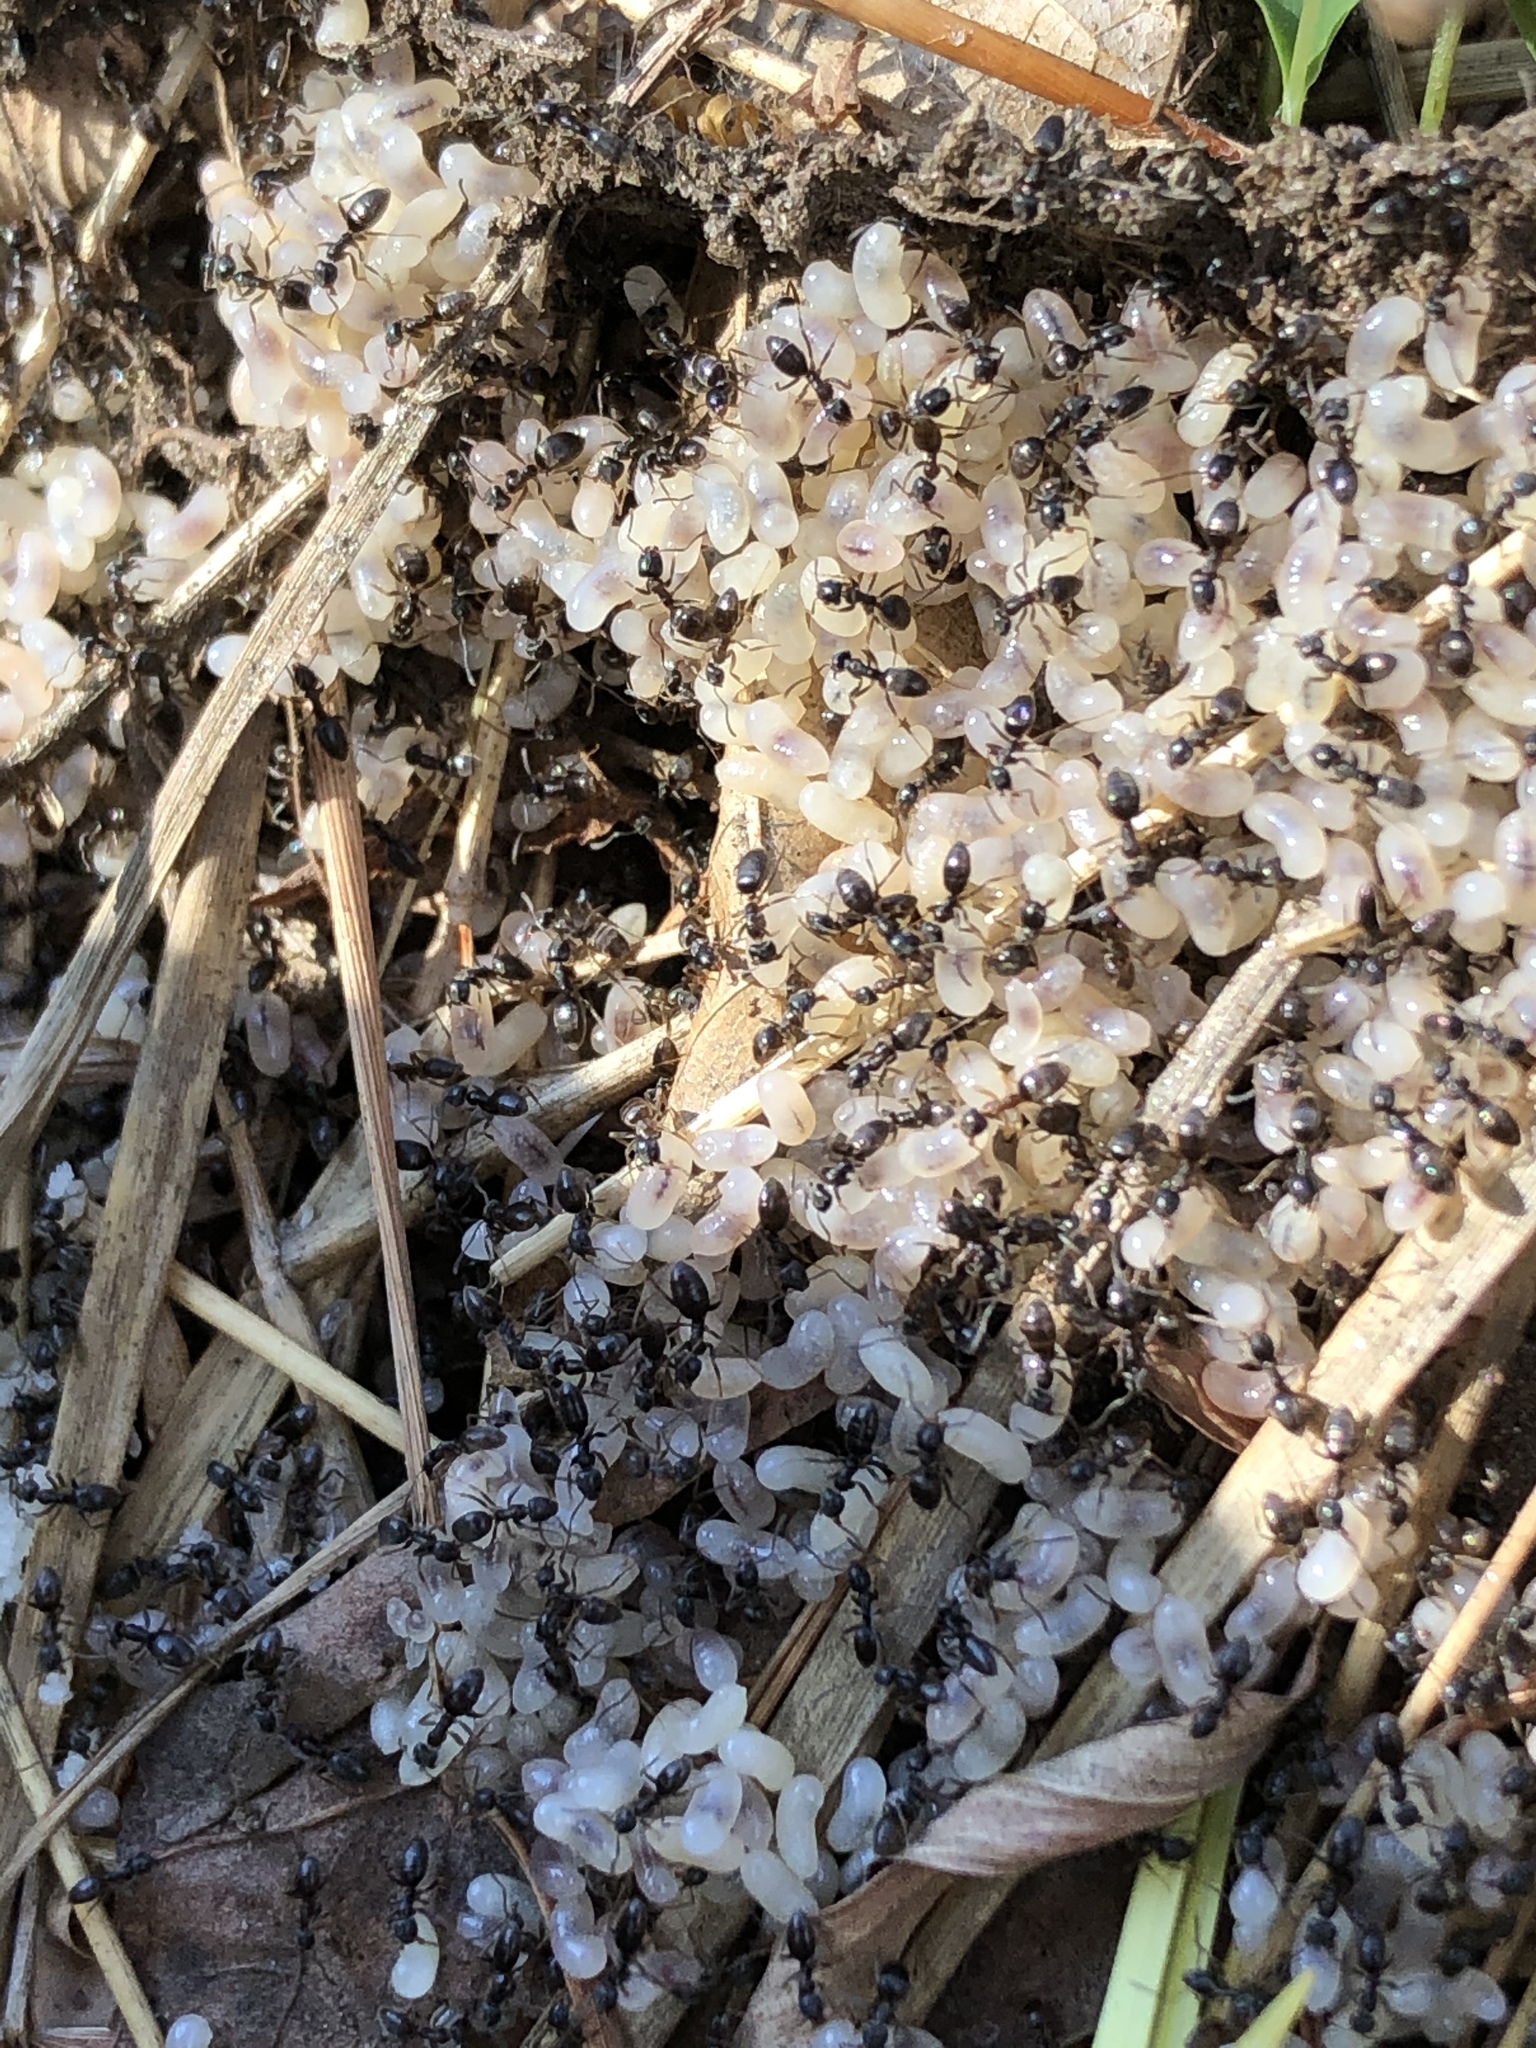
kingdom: Animalia
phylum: Arthropoda
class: Insecta
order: Hymenoptera
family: Formicidae
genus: Tapinoma
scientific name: Tapinoma sessile
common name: Odorous house ant
